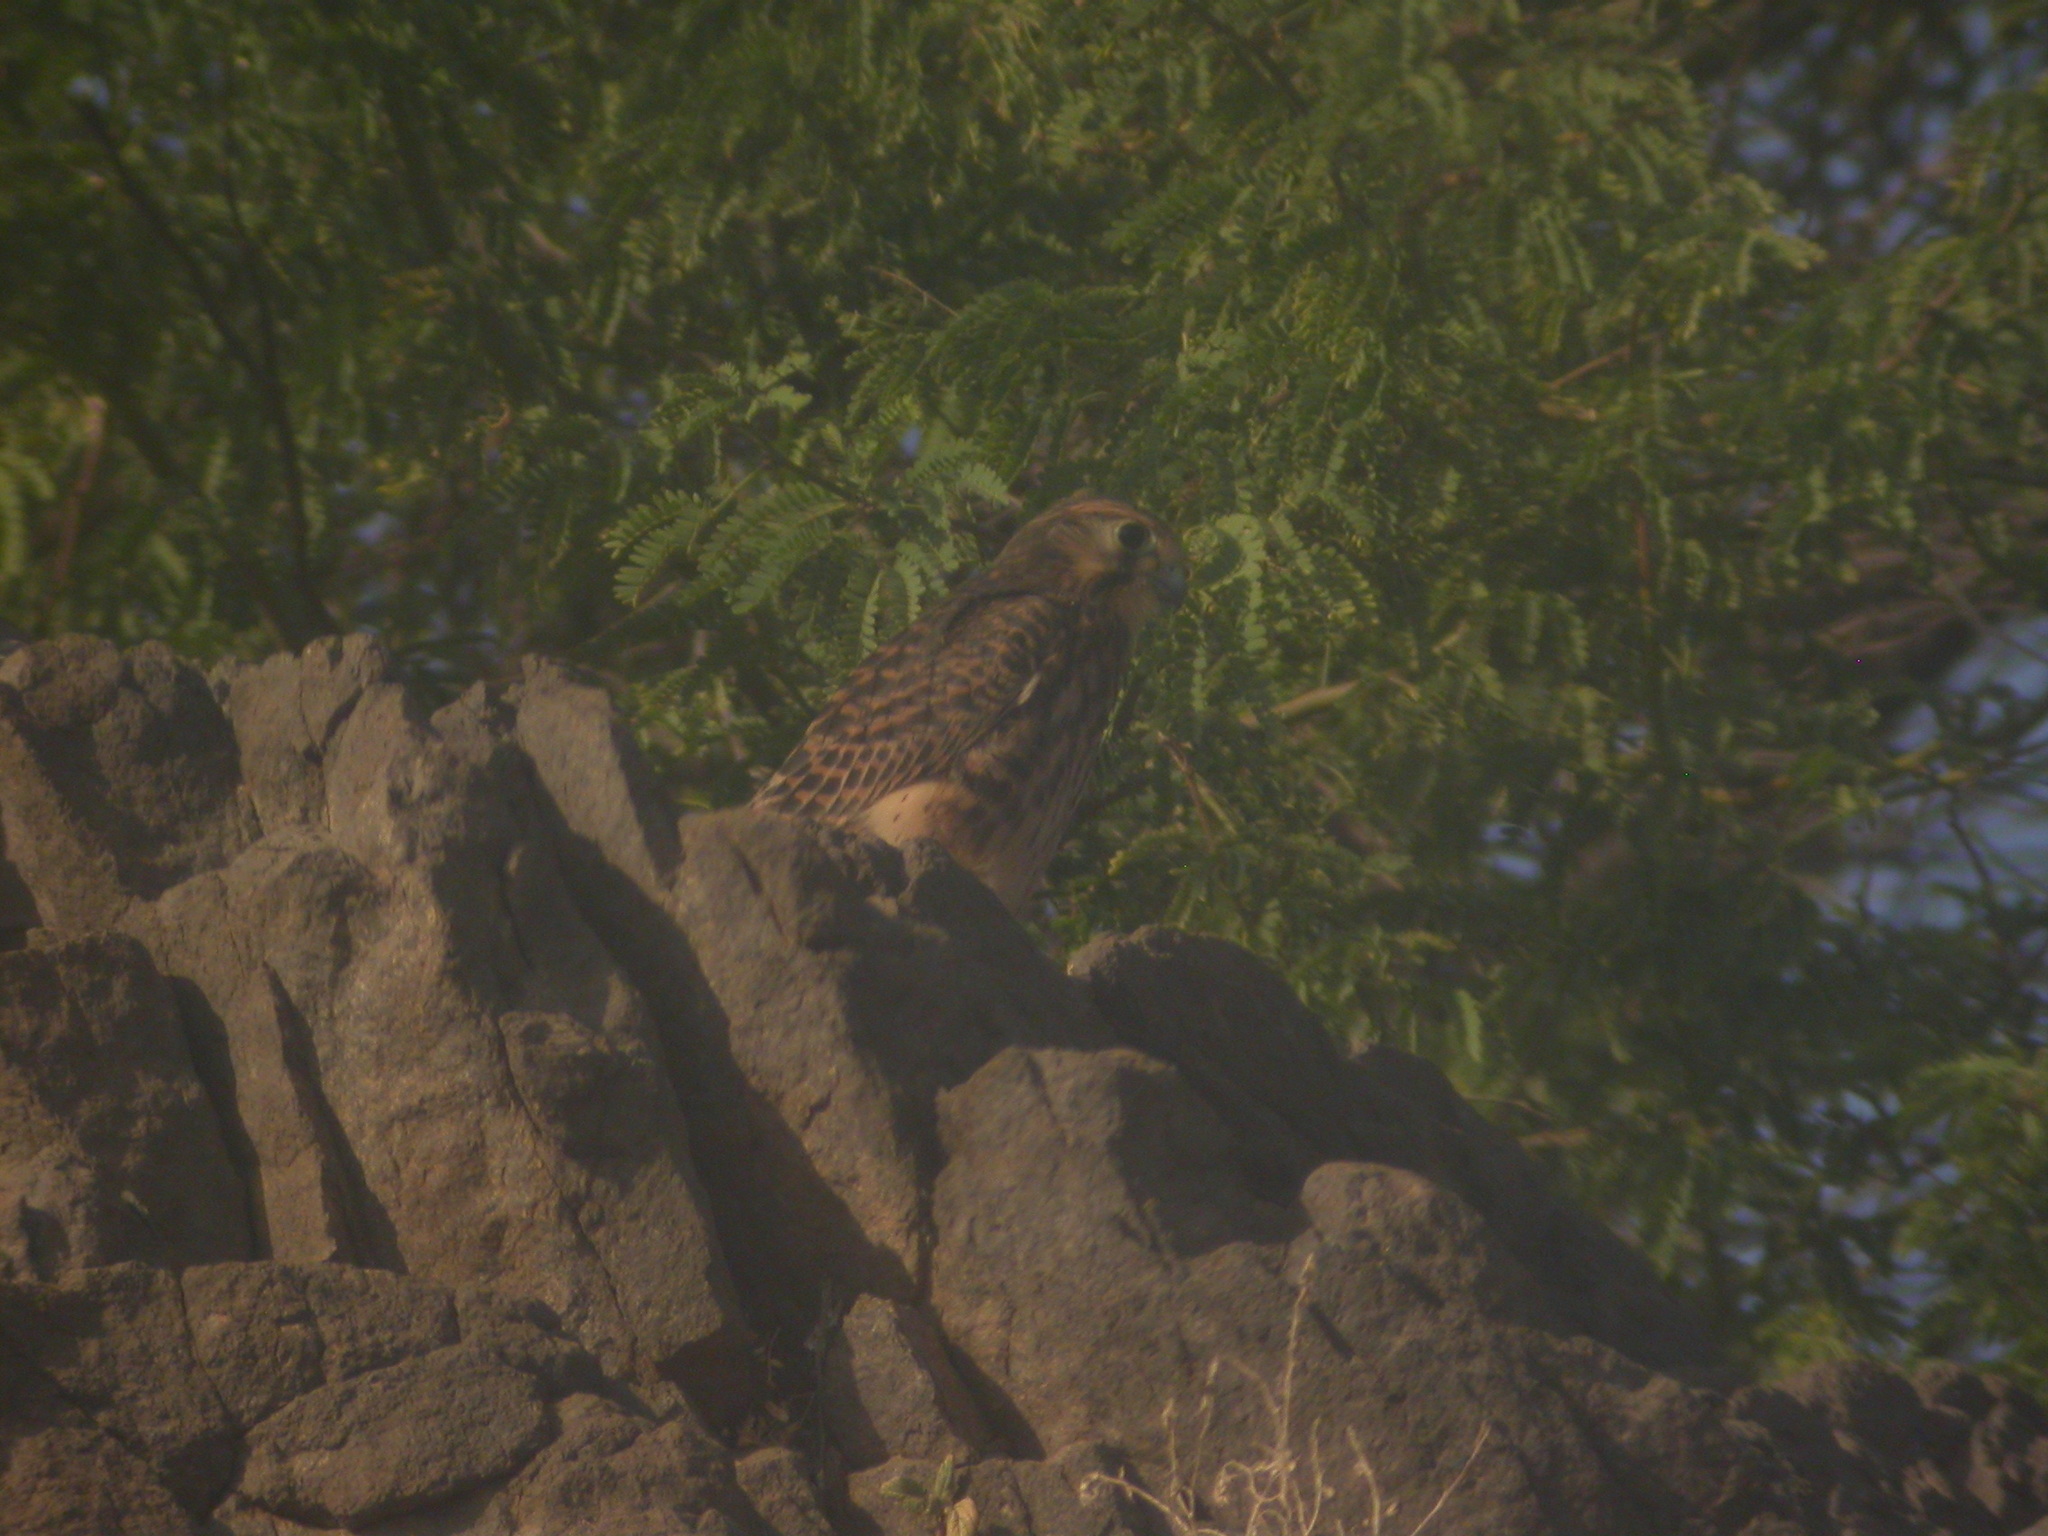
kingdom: Animalia
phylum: Chordata
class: Aves
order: Falconiformes
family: Falconidae
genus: Falco
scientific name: Falco tinnunculus
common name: Common kestrel
